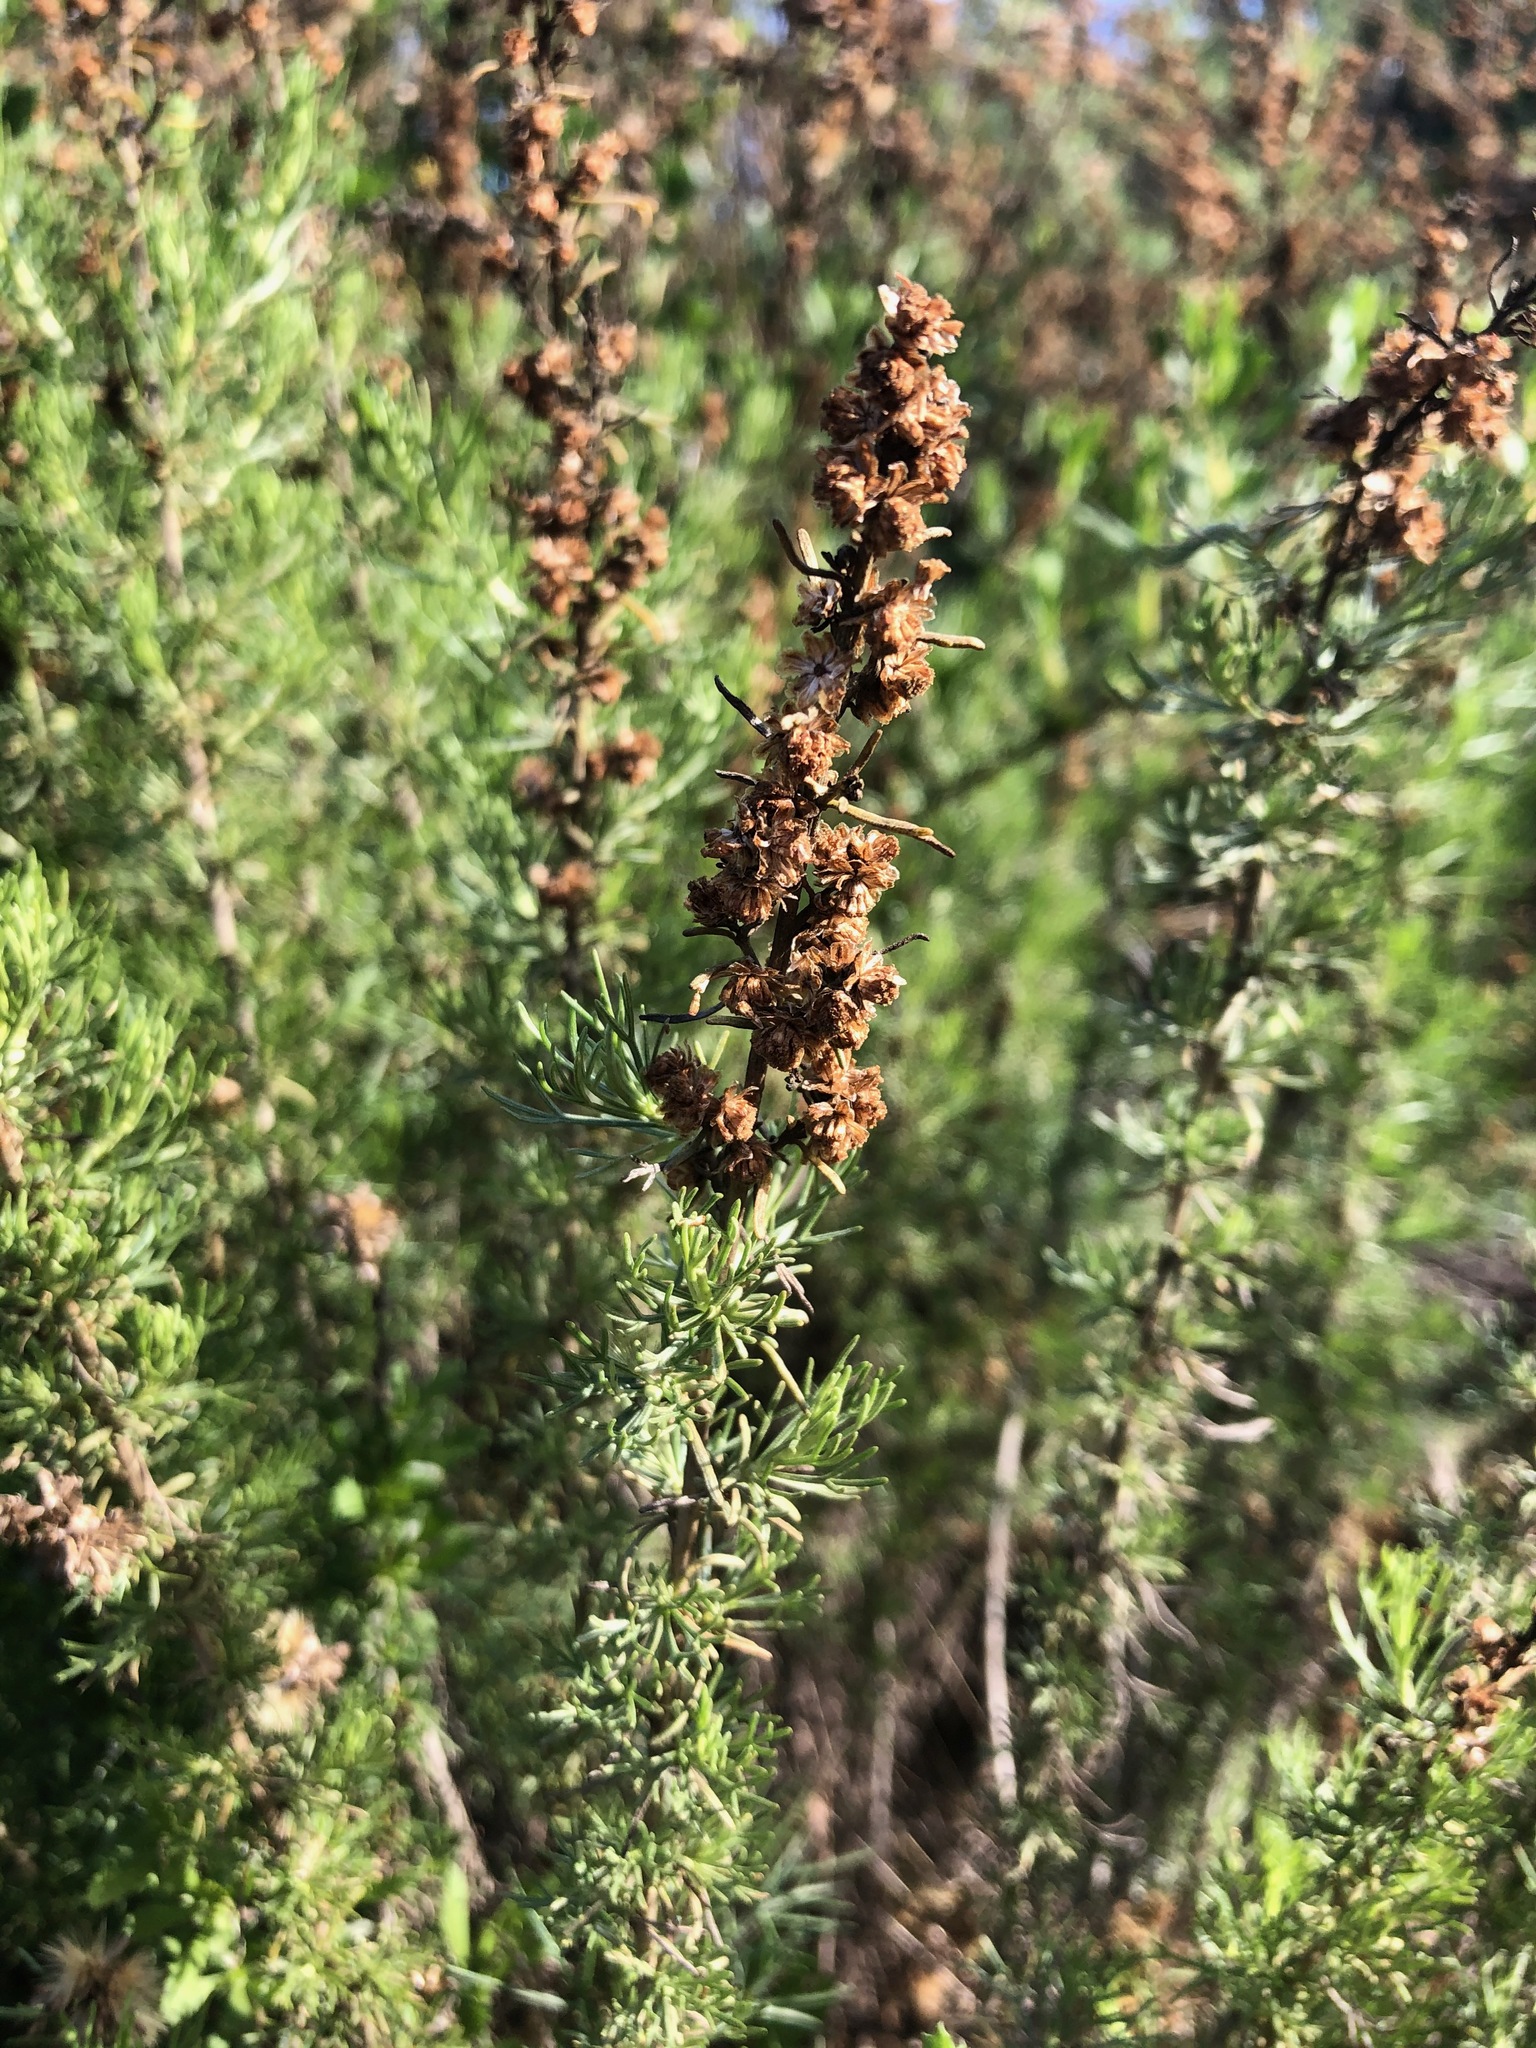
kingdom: Plantae
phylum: Tracheophyta
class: Magnoliopsida
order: Asterales
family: Asteraceae
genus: Artemisia
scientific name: Artemisia californica
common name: California sagebrush
